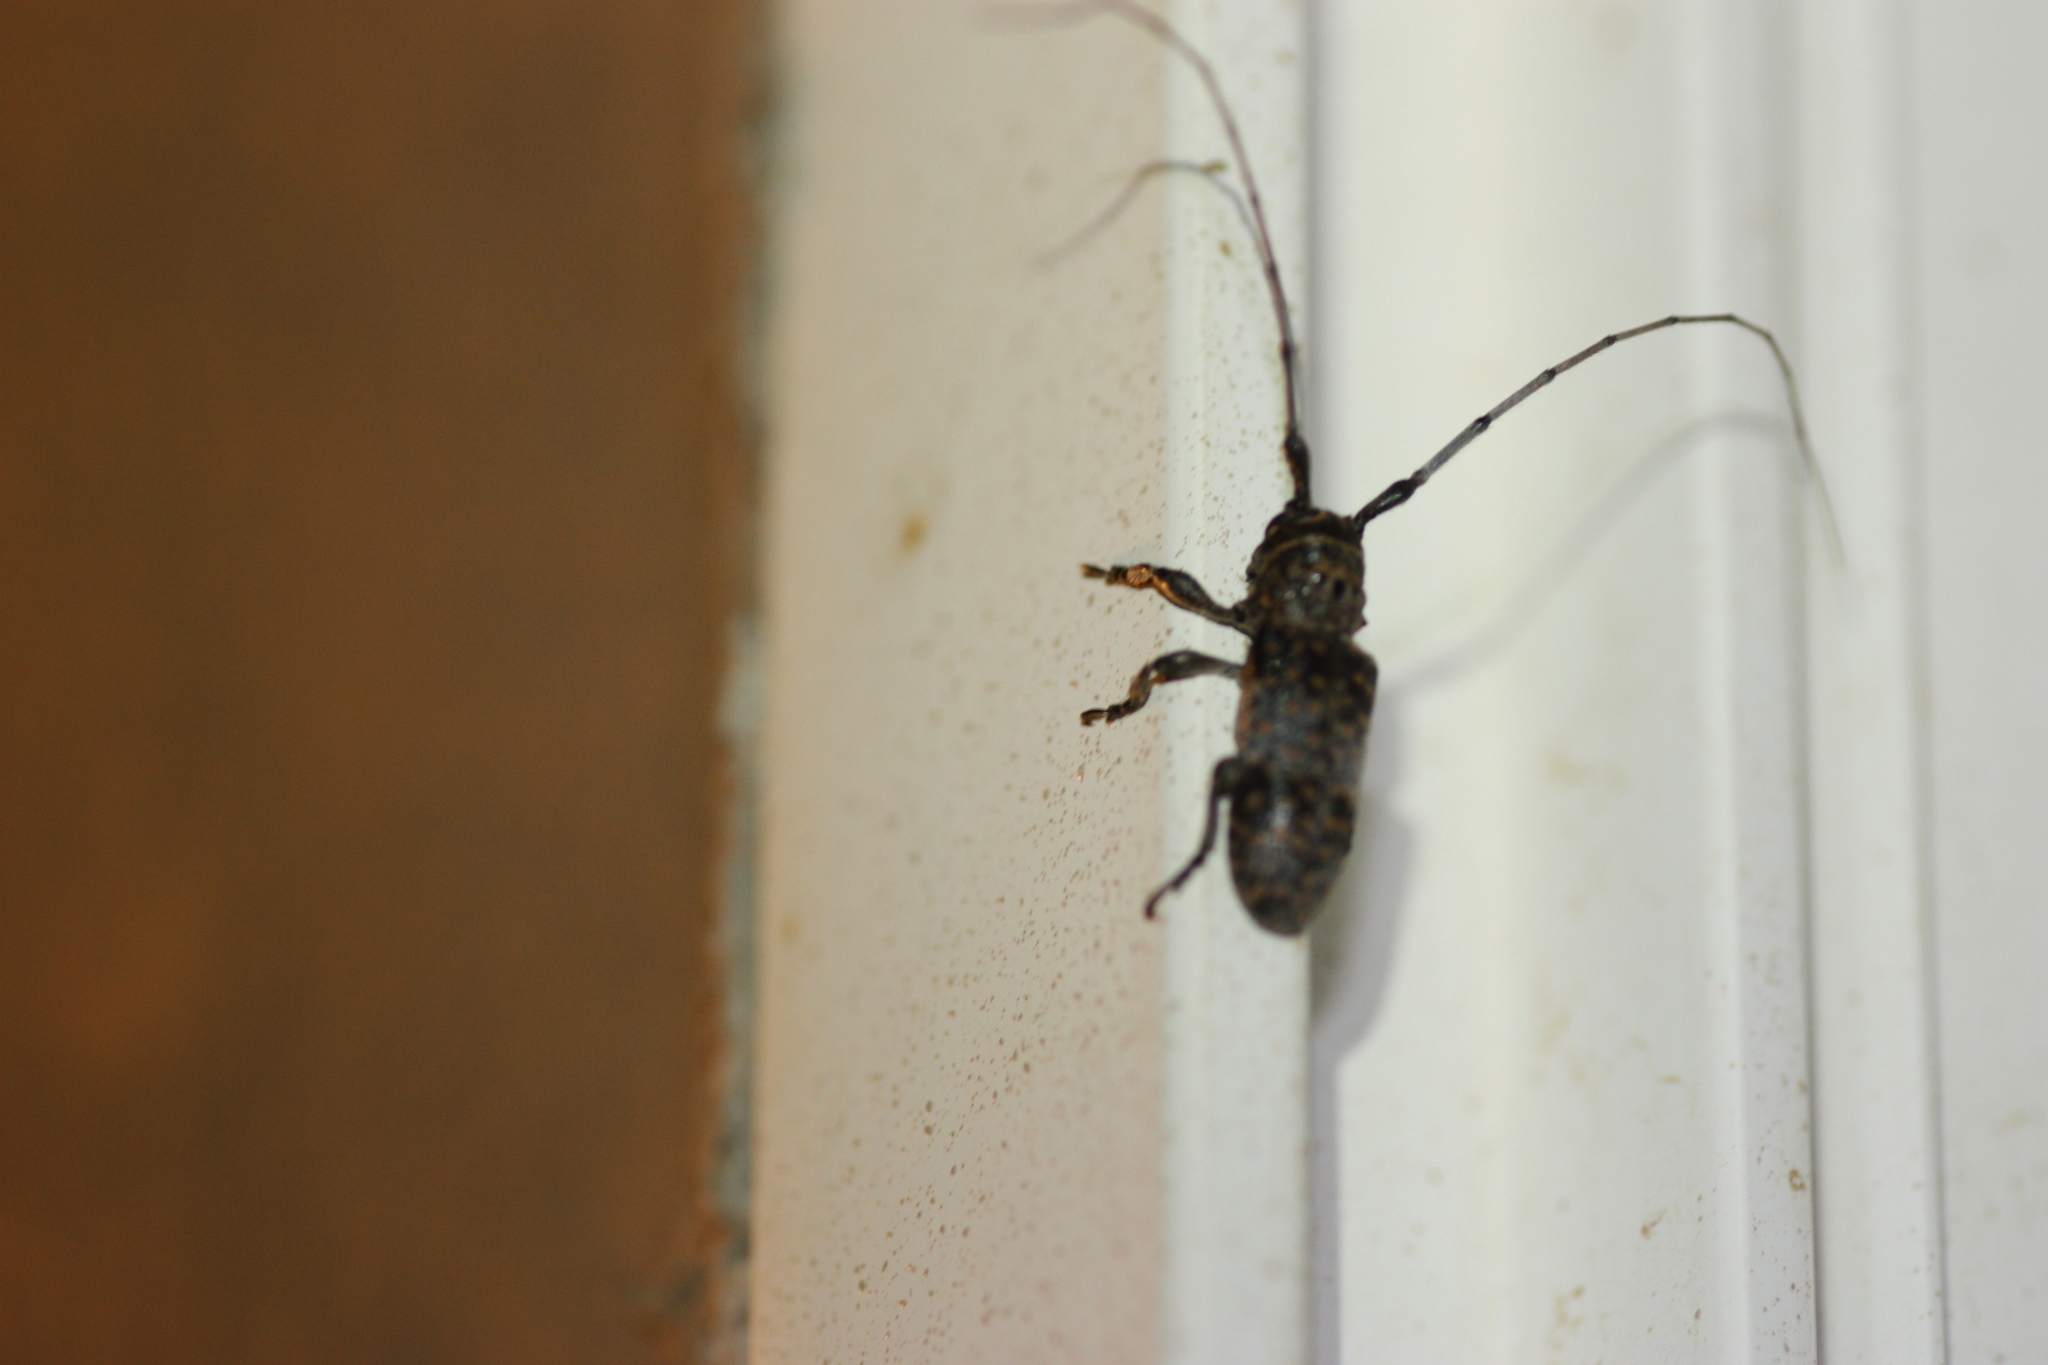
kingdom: Animalia
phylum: Arthropoda
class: Insecta
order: Coleoptera
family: Cerambycidae
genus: Oncideres
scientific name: Oncideres rhodosticta
